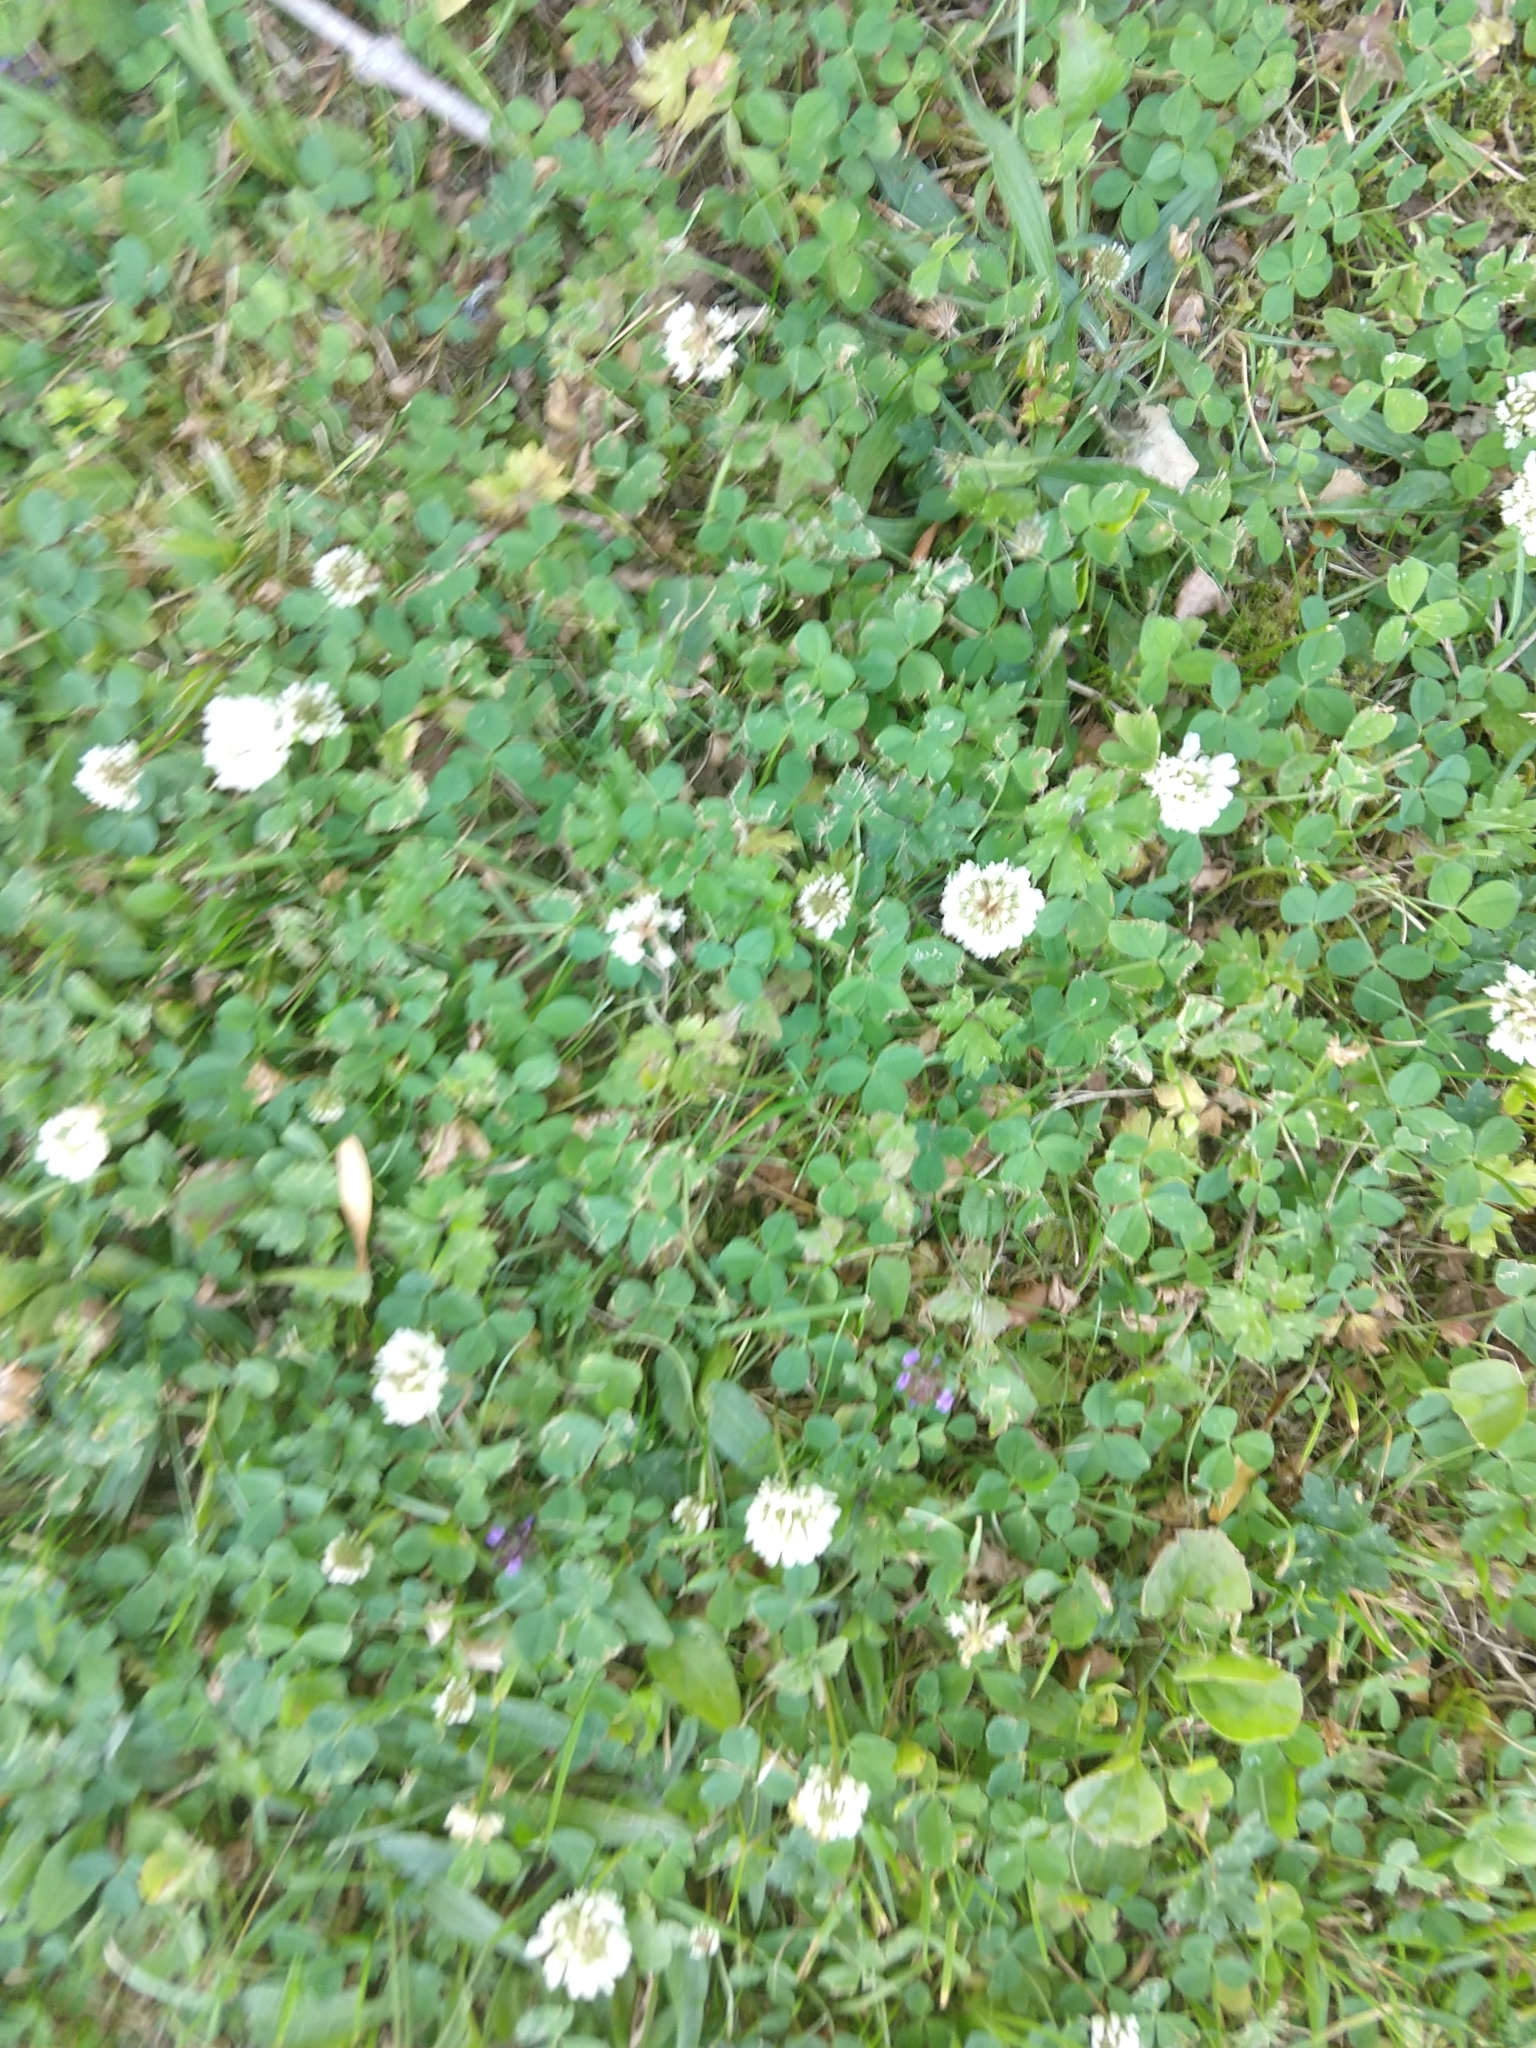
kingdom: Plantae
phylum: Tracheophyta
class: Magnoliopsida
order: Fabales
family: Fabaceae
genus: Trifolium
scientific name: Trifolium repens
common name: White clover
